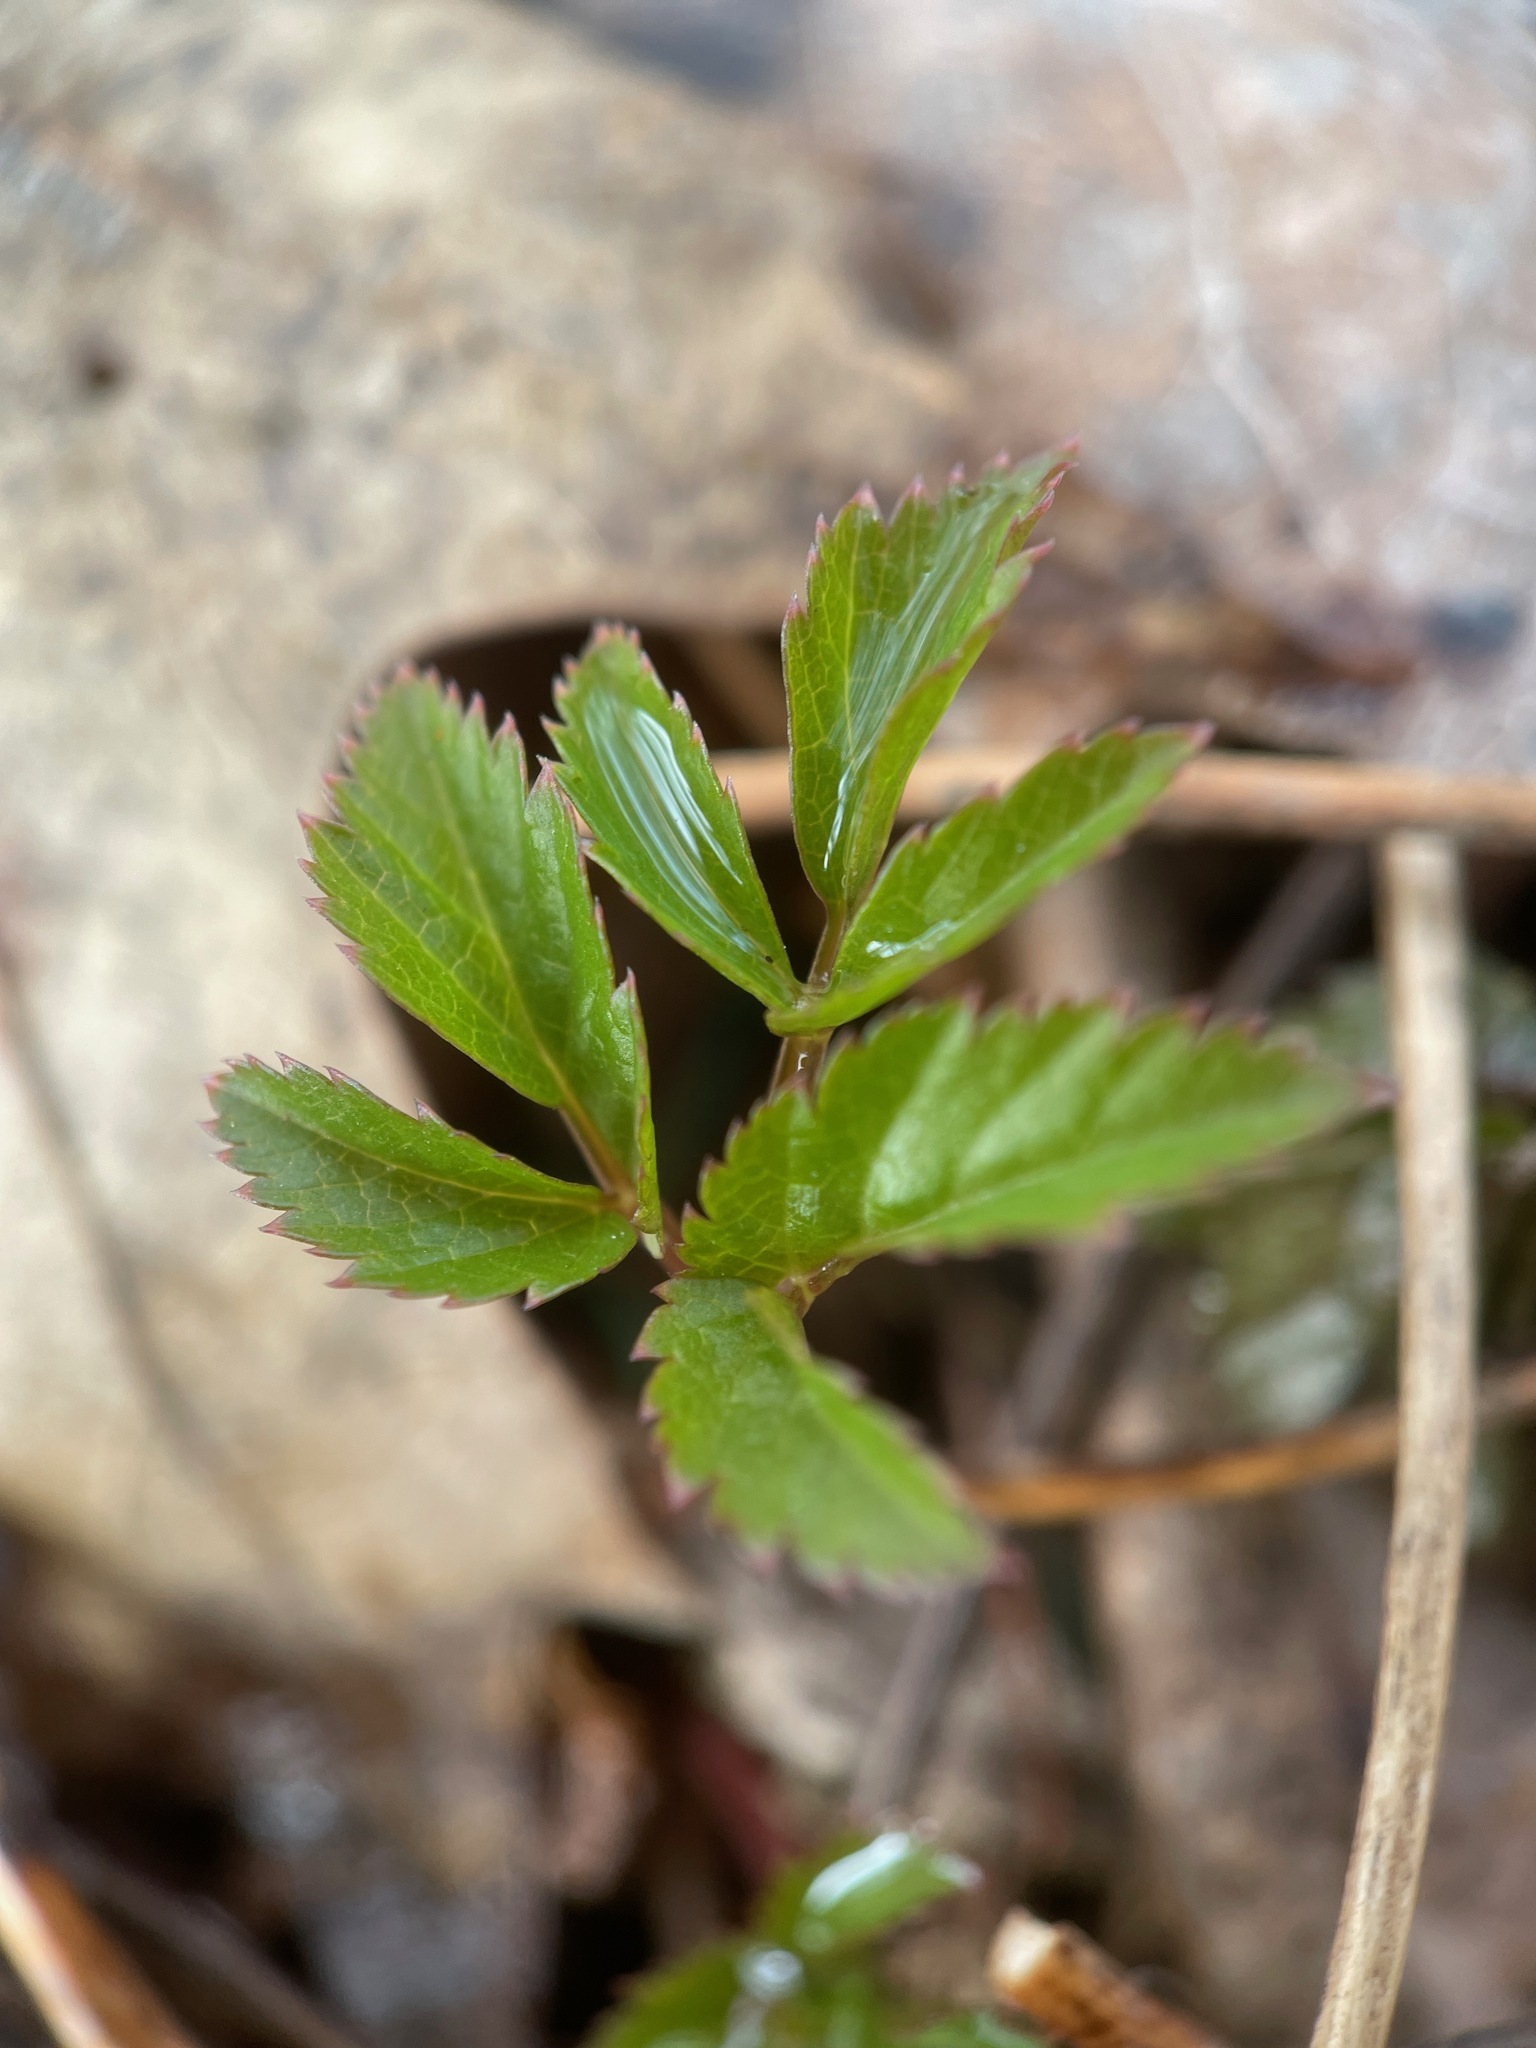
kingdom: Plantae
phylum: Tracheophyta
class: Magnoliopsida
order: Apiales
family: Apiaceae
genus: Aegopodium
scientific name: Aegopodium podagraria
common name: Ground-elder
